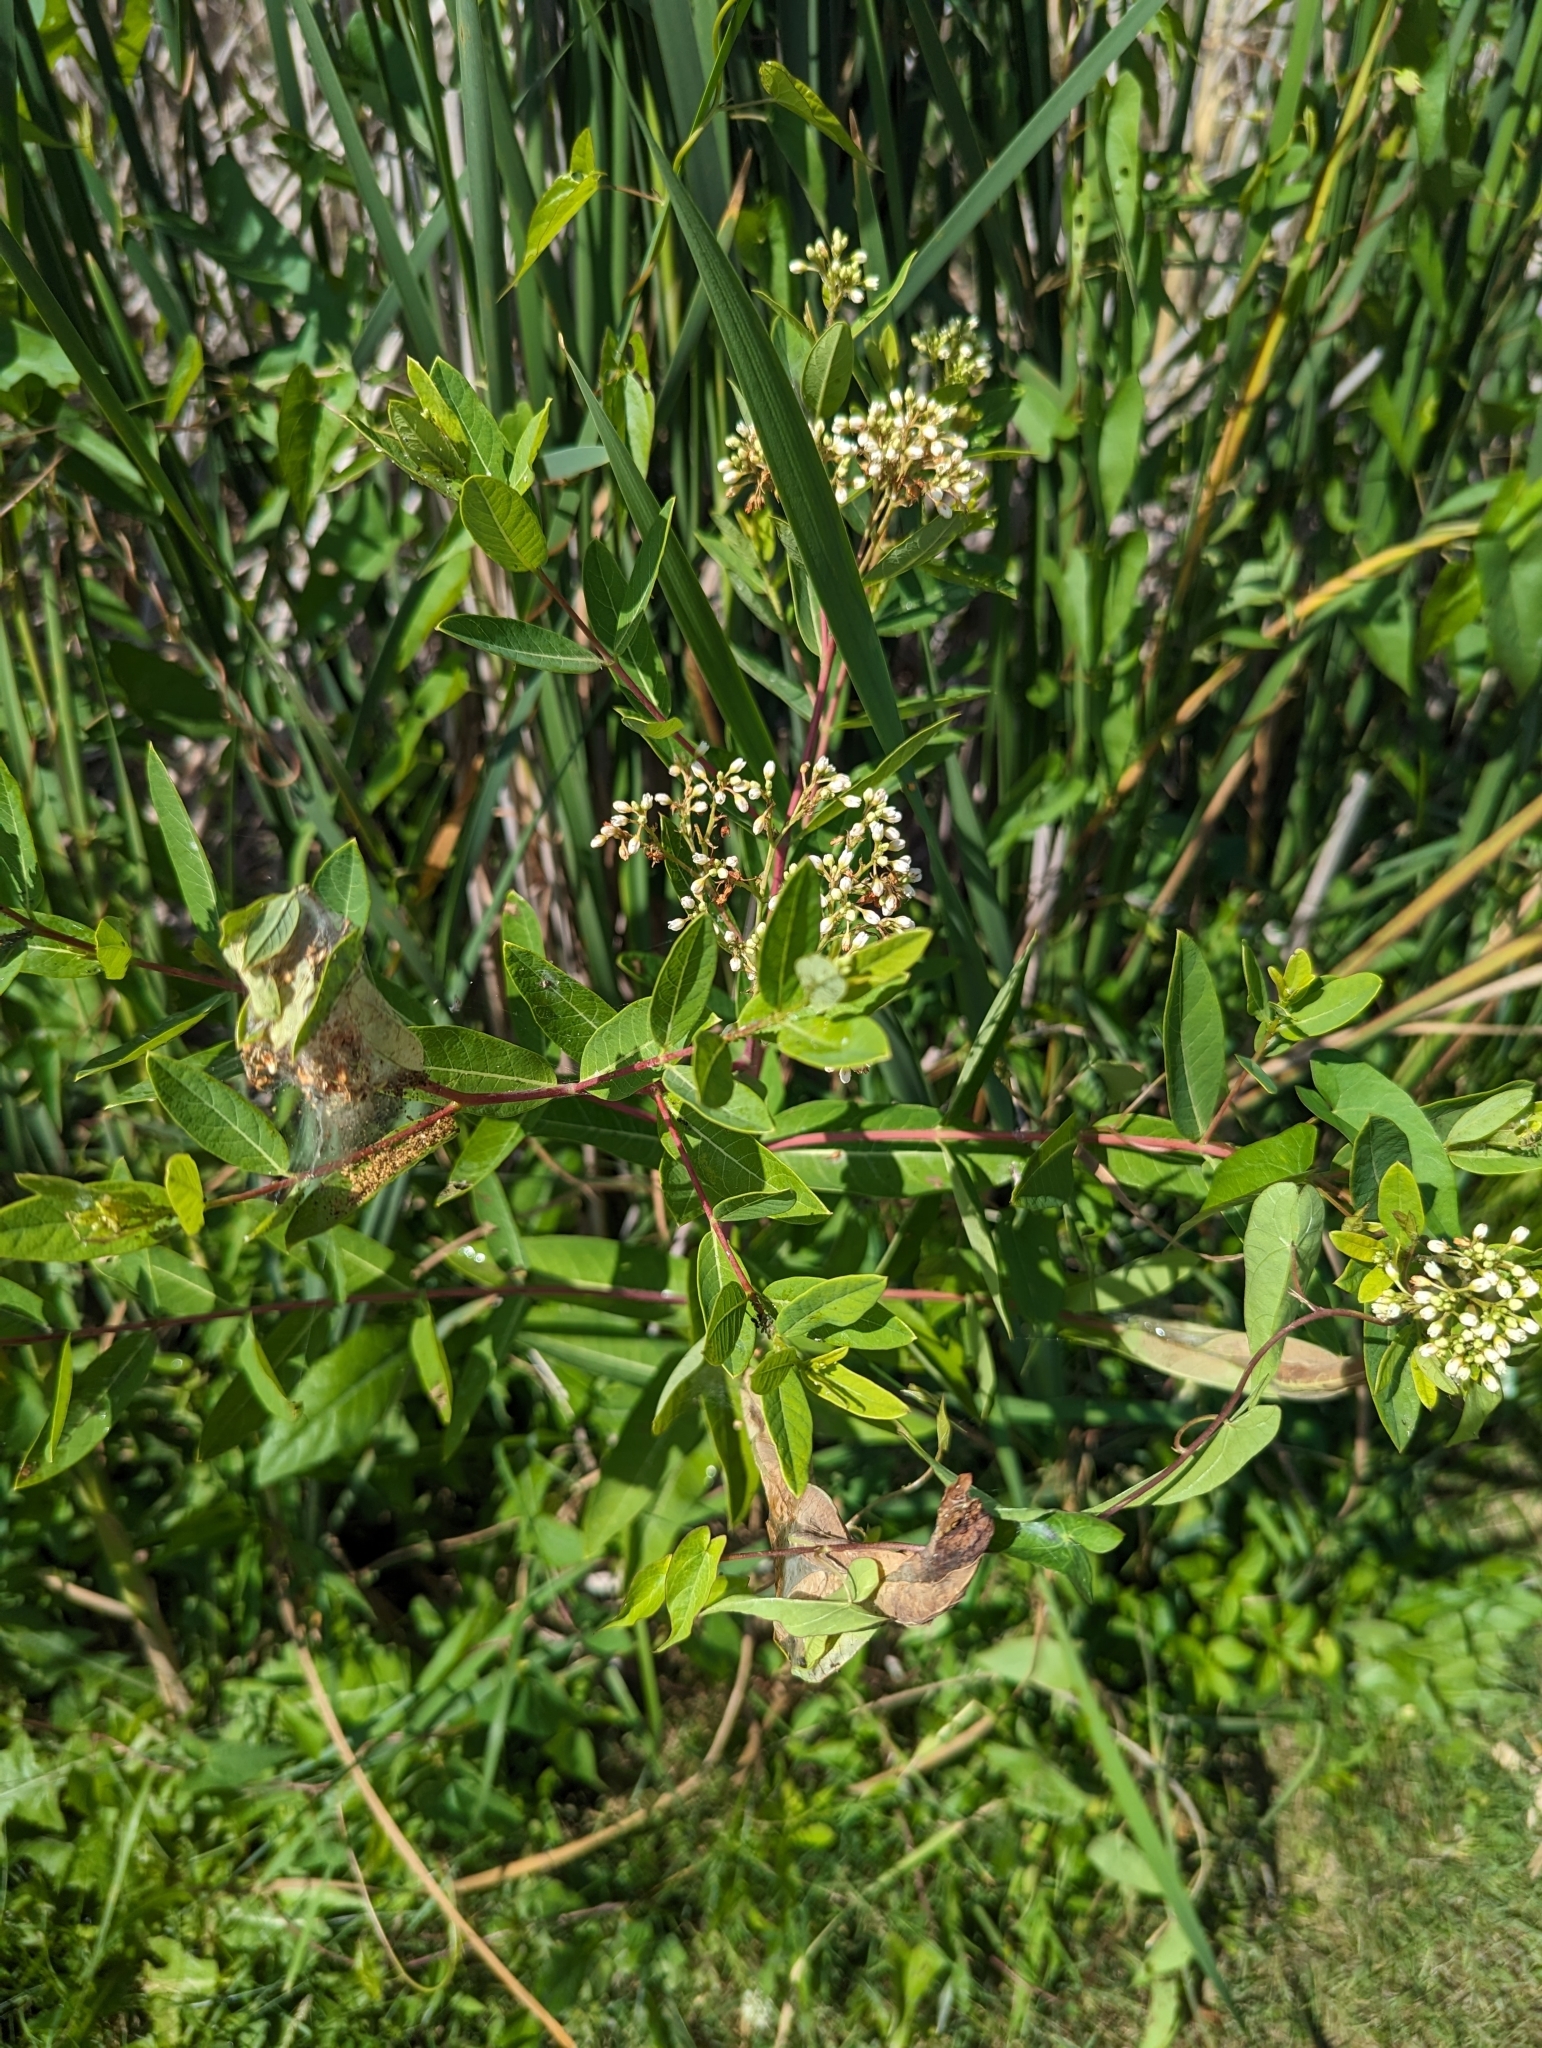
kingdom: Plantae
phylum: Tracheophyta
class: Magnoliopsida
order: Gentianales
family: Apocynaceae
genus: Apocynum
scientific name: Apocynum cannabinum
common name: Hemp dogbane
